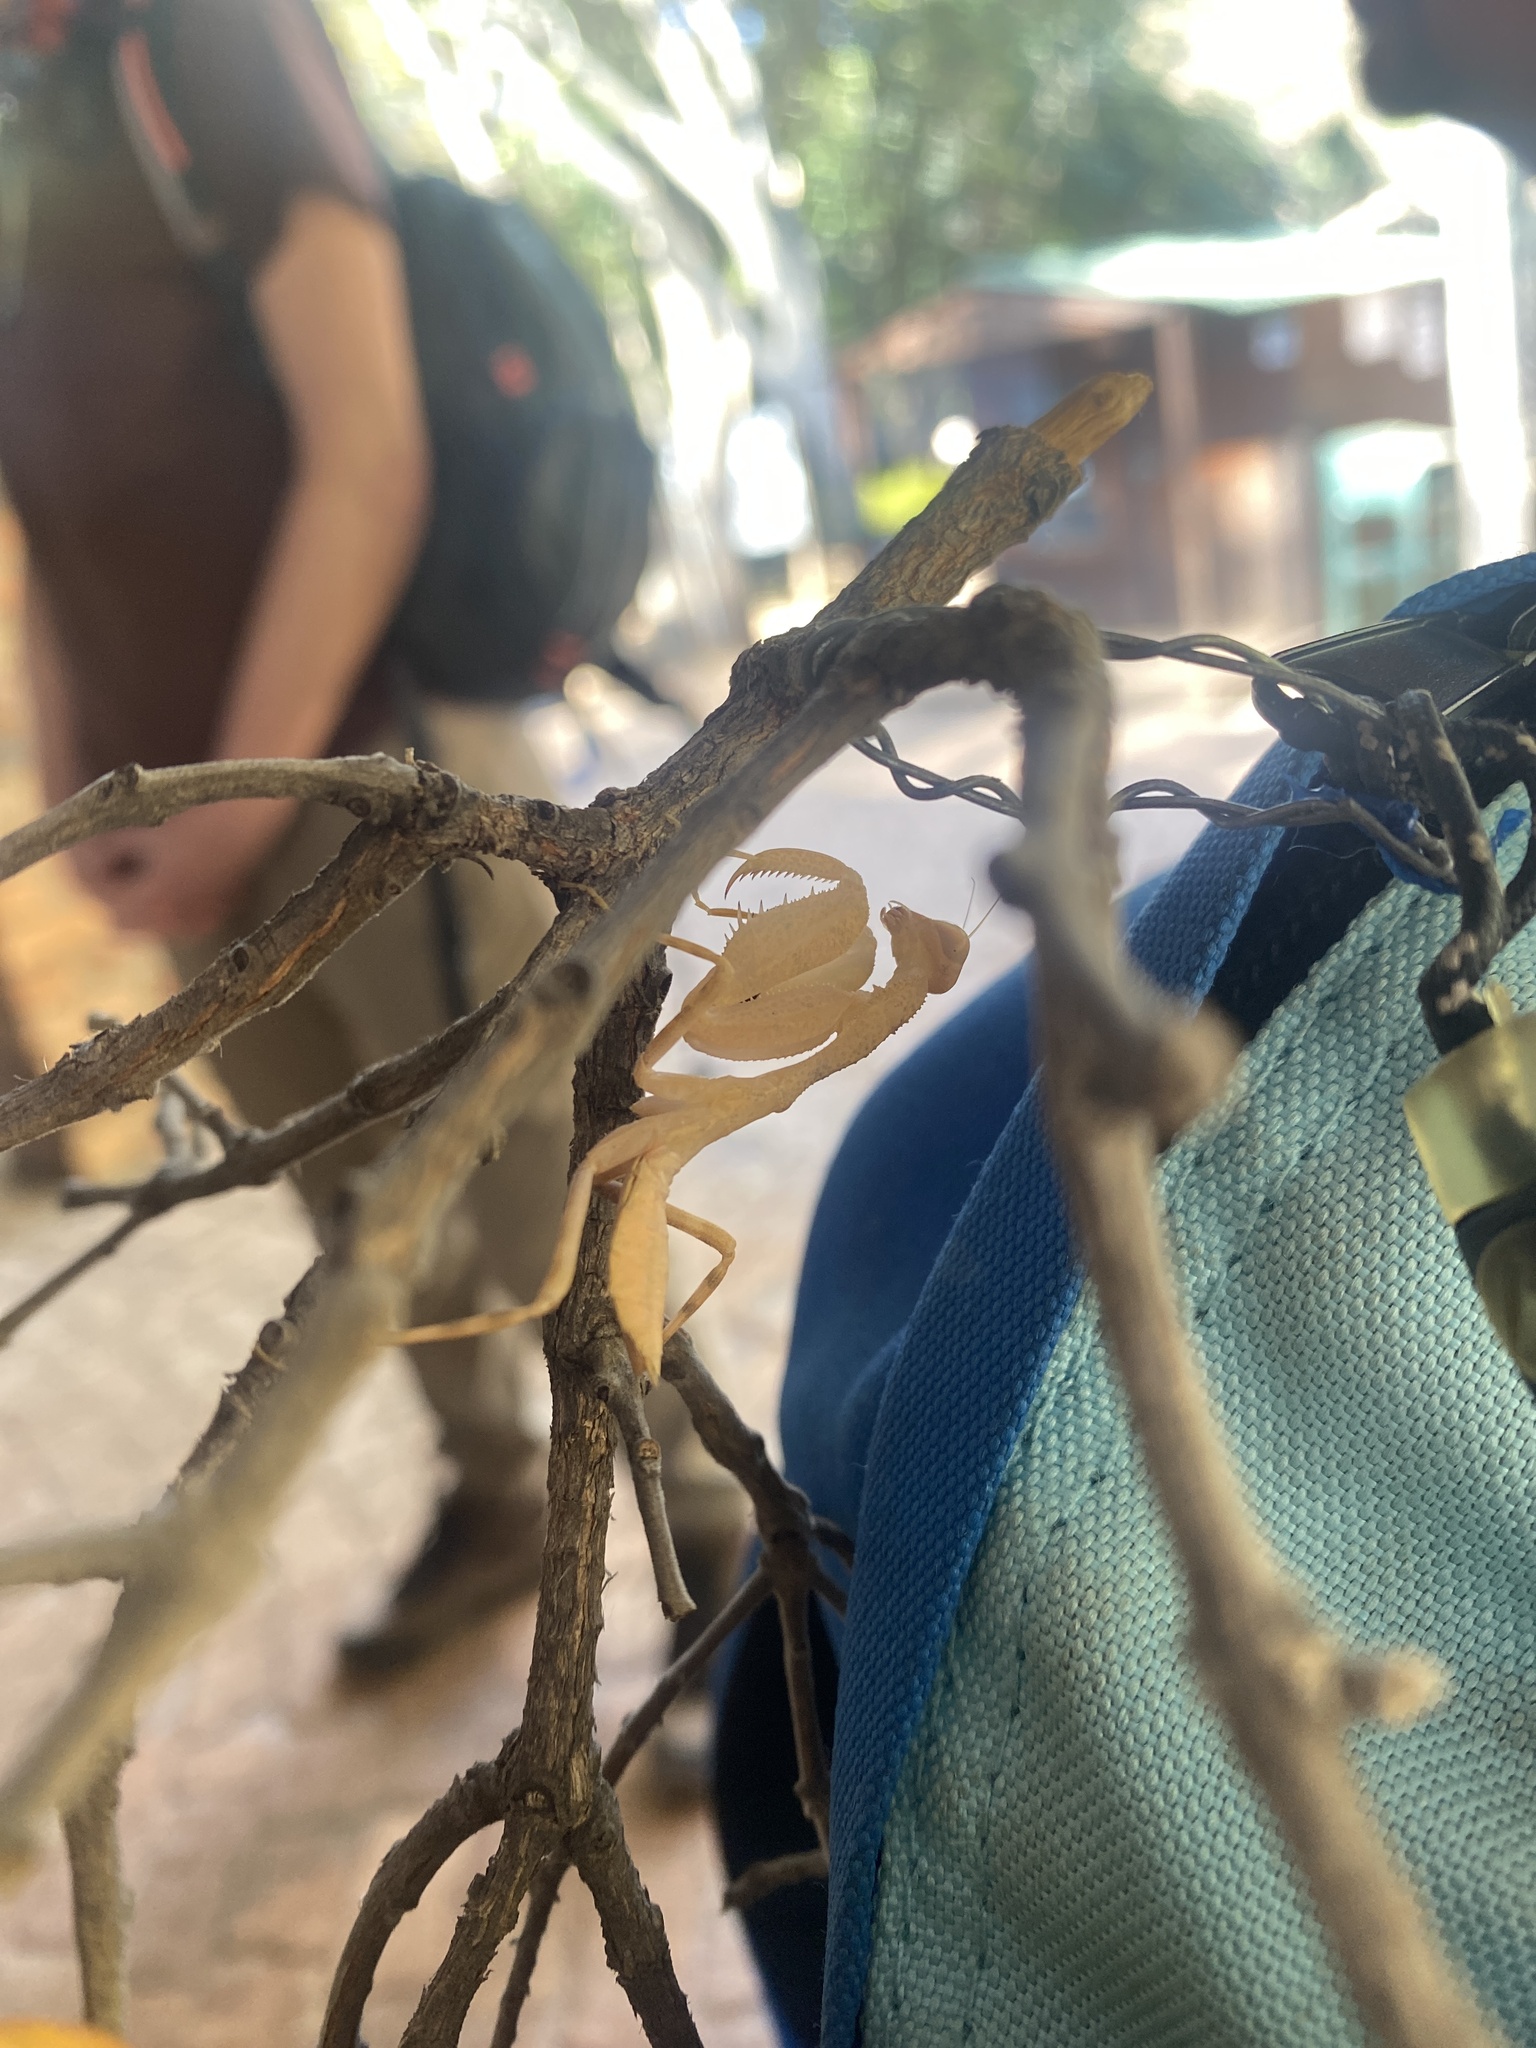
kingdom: Animalia
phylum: Arthropoda
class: Insecta
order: Mantodea
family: Chroicopteridae
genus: Dystacta
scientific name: Dystacta alticeps
